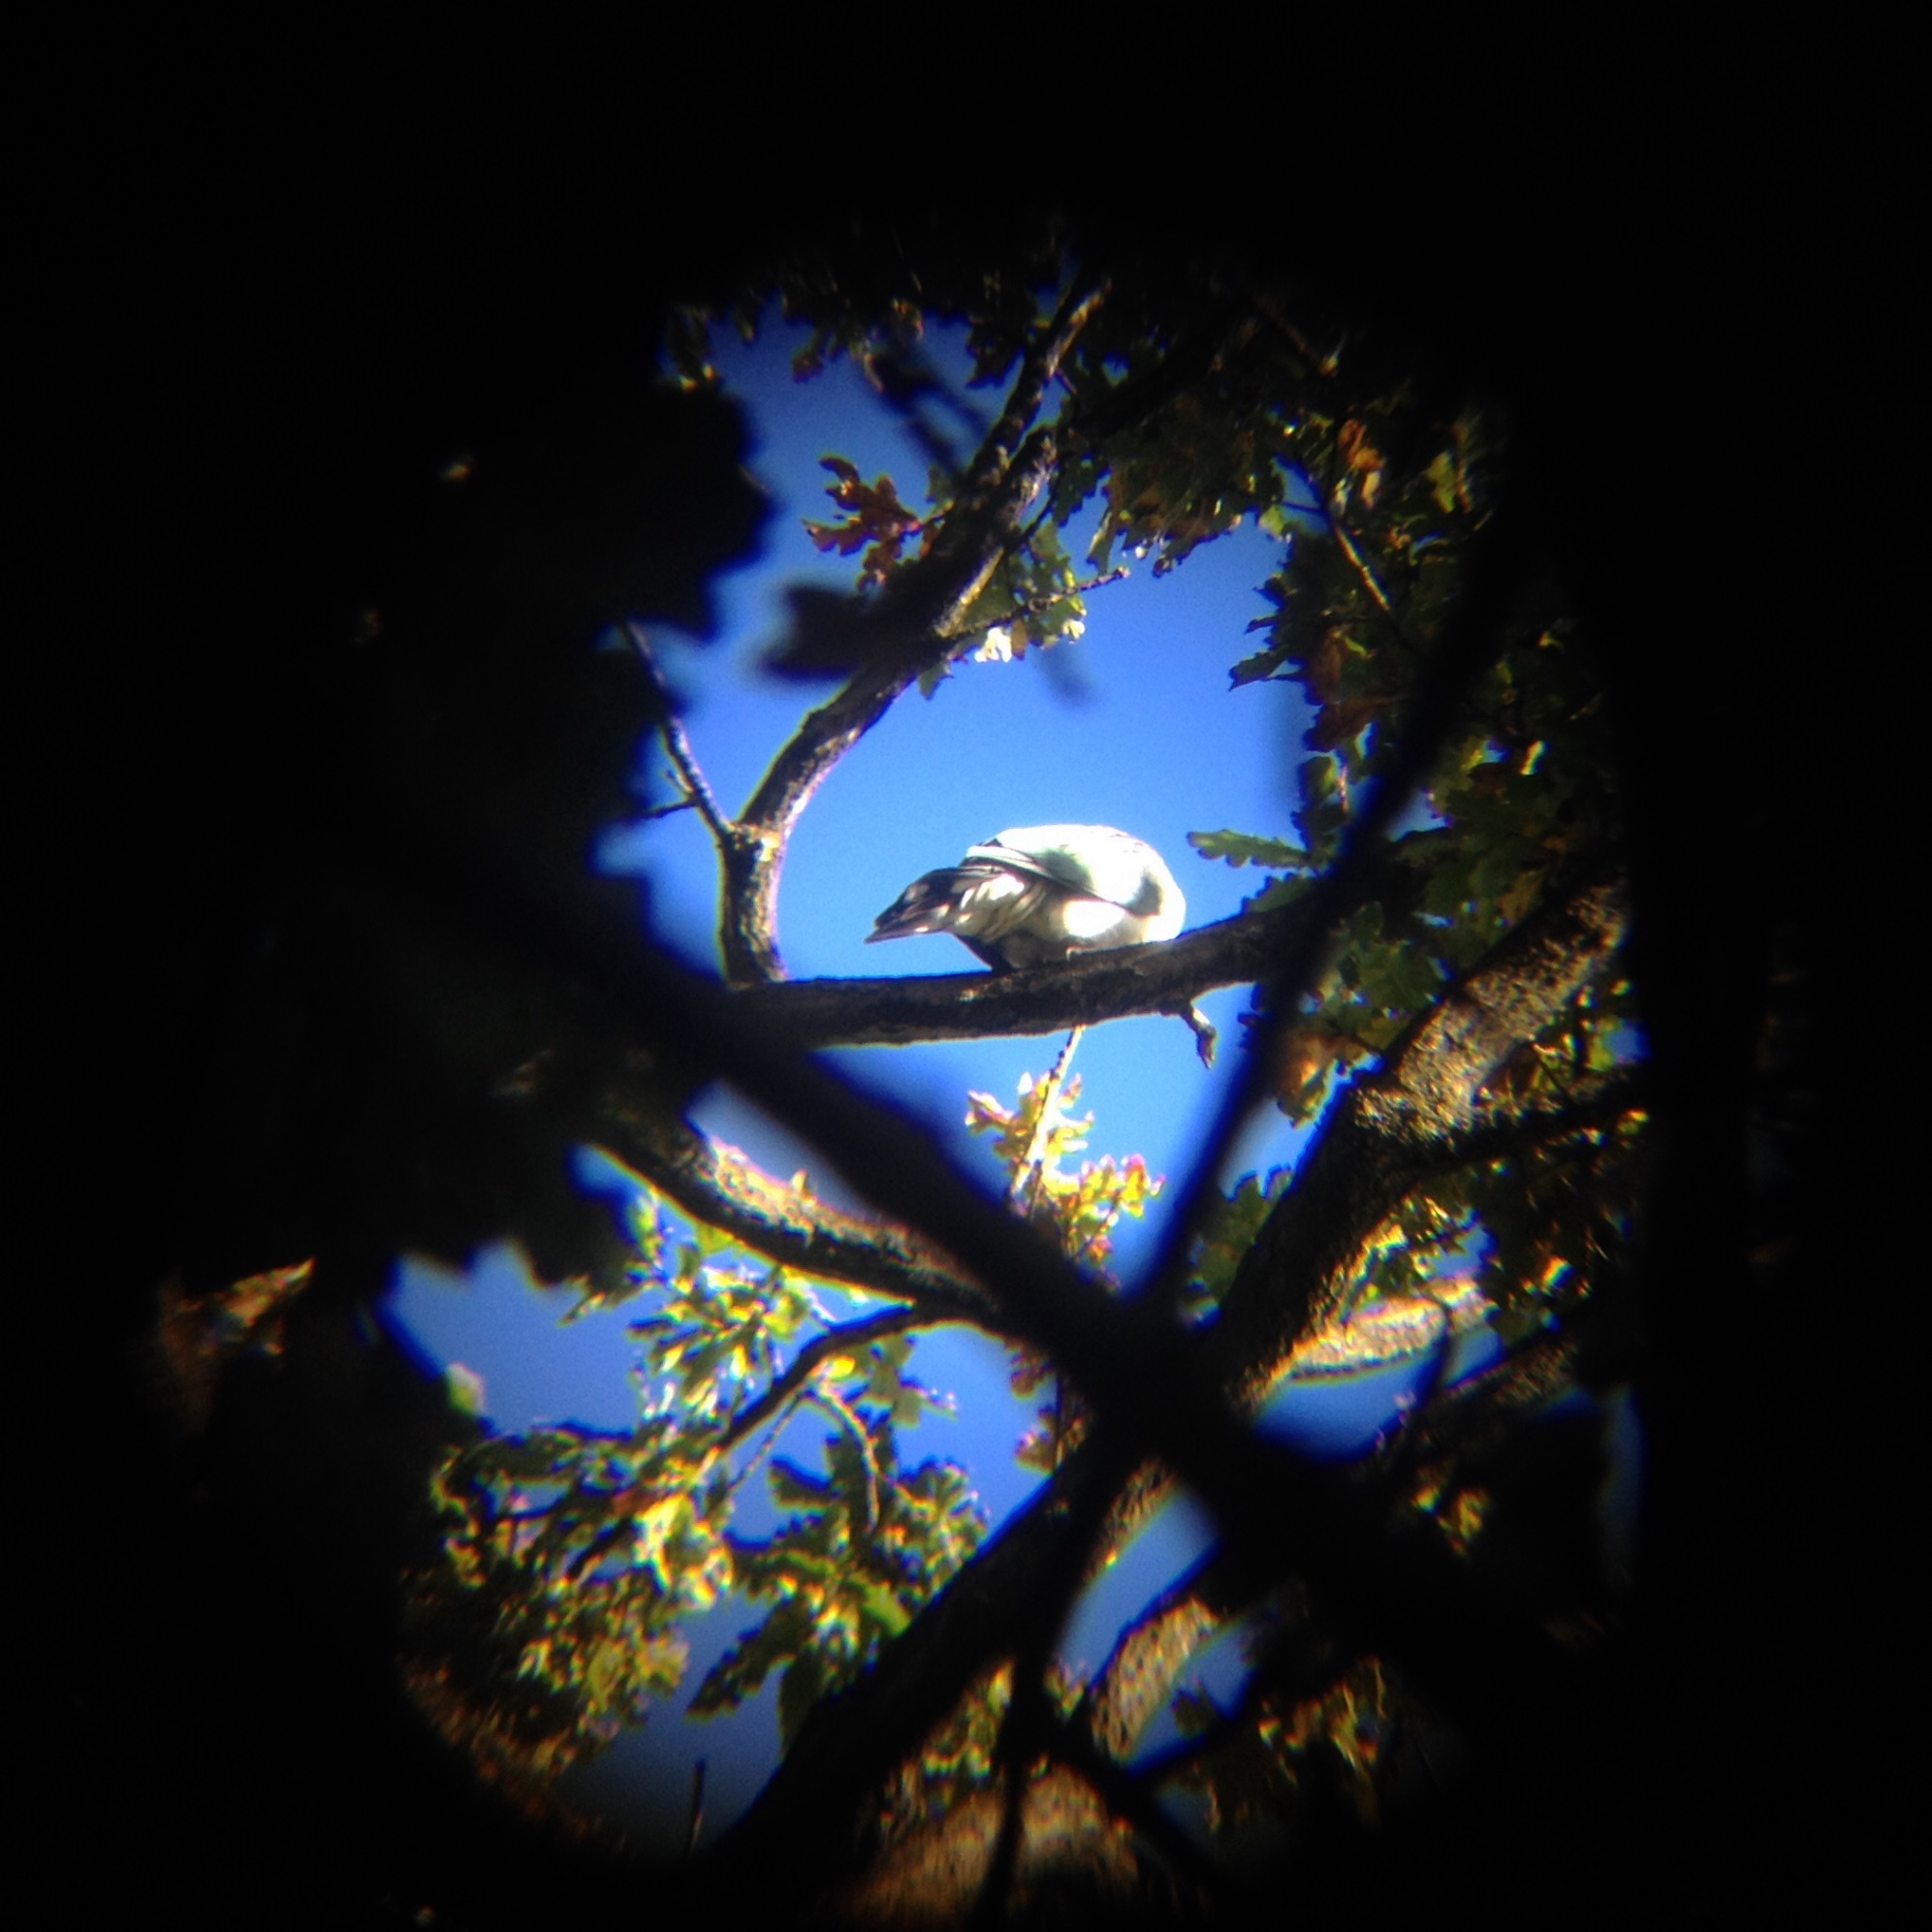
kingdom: Animalia
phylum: Chordata
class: Aves
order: Columbiformes
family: Columbidae
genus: Hemiphaga
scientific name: Hemiphaga novaeseelandiae
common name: New zealand pigeon
